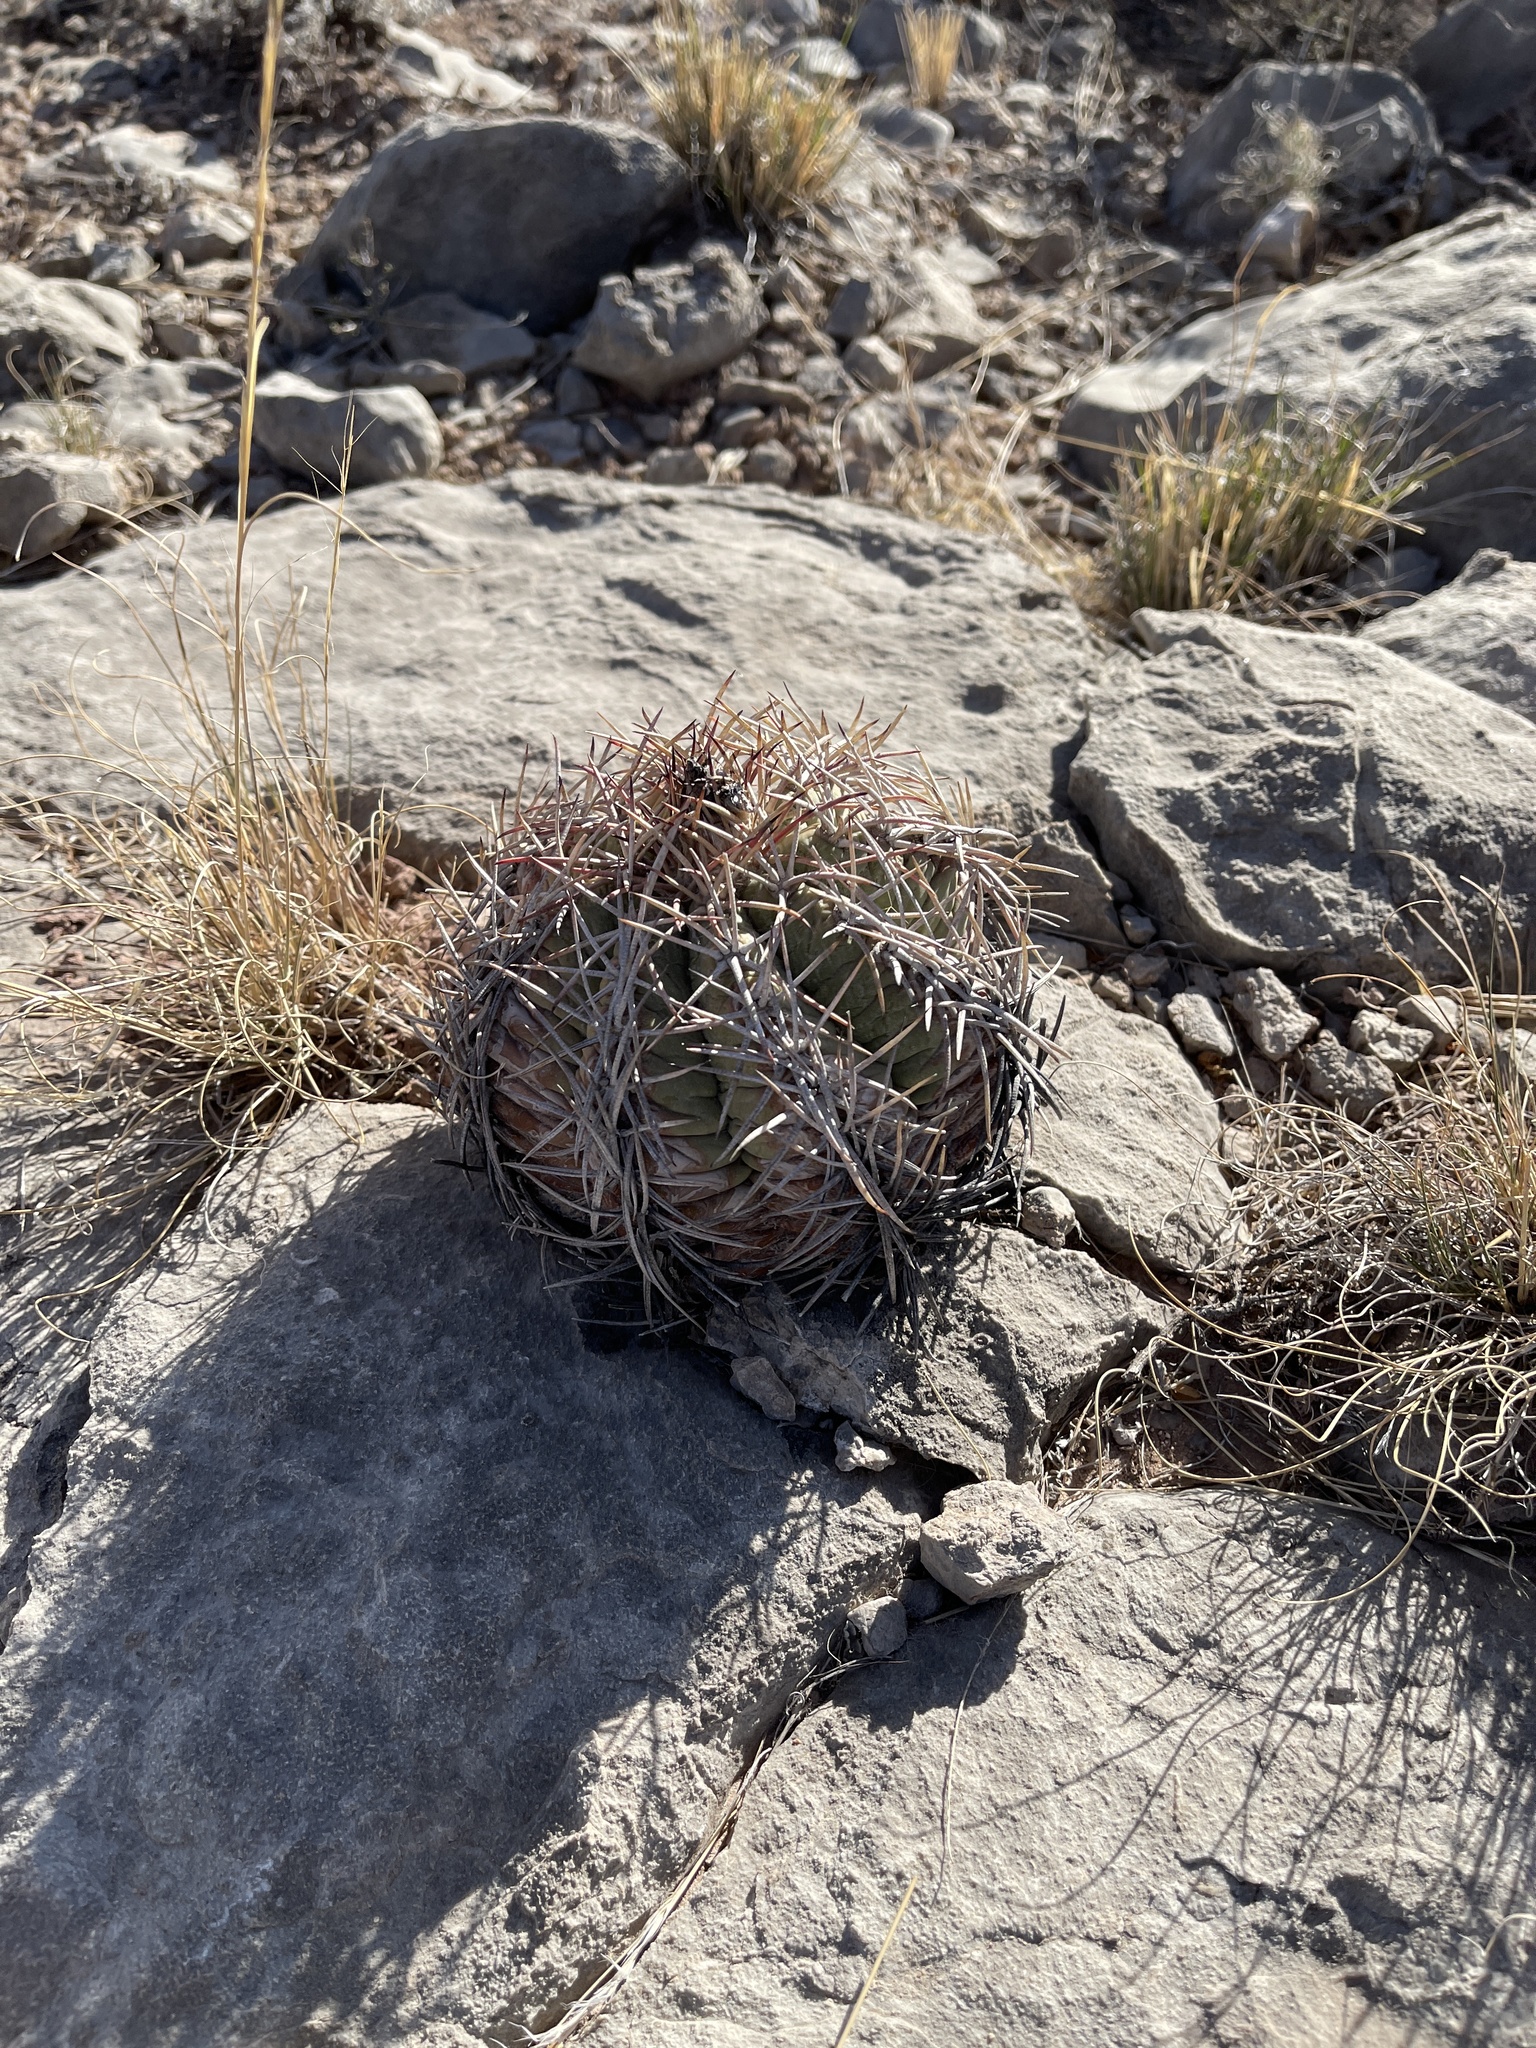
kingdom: Plantae
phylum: Tracheophyta
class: Magnoliopsida
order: Caryophyllales
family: Cactaceae
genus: Echinocactus
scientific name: Echinocactus horizonthalonius
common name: Devilshead
